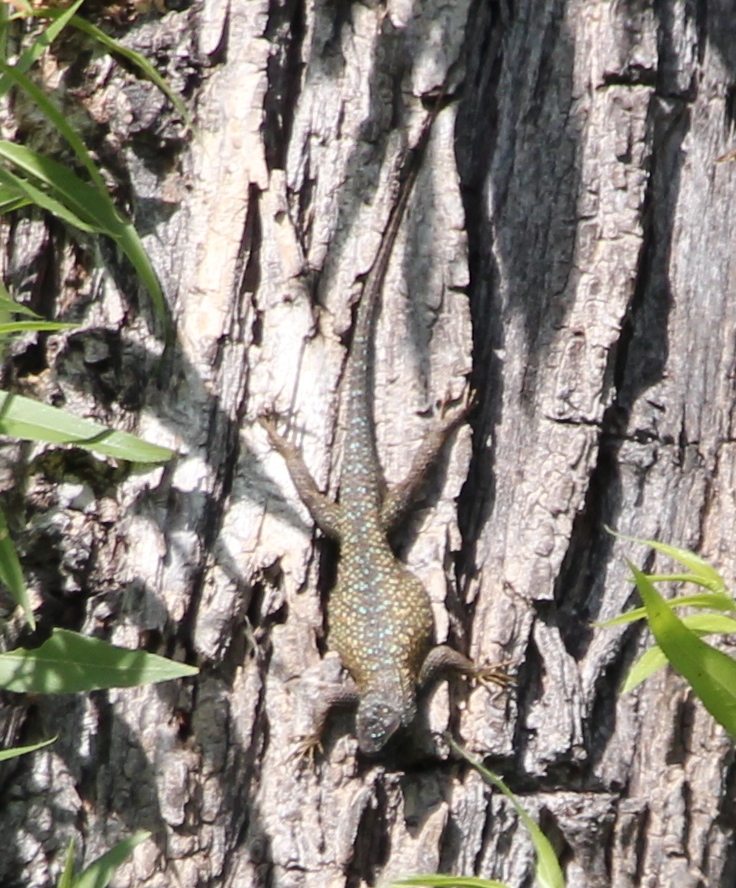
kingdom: Animalia
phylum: Chordata
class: Squamata
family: Phrynosomatidae
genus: Sceloporus
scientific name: Sceloporus occidentalis
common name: Western fence lizard
